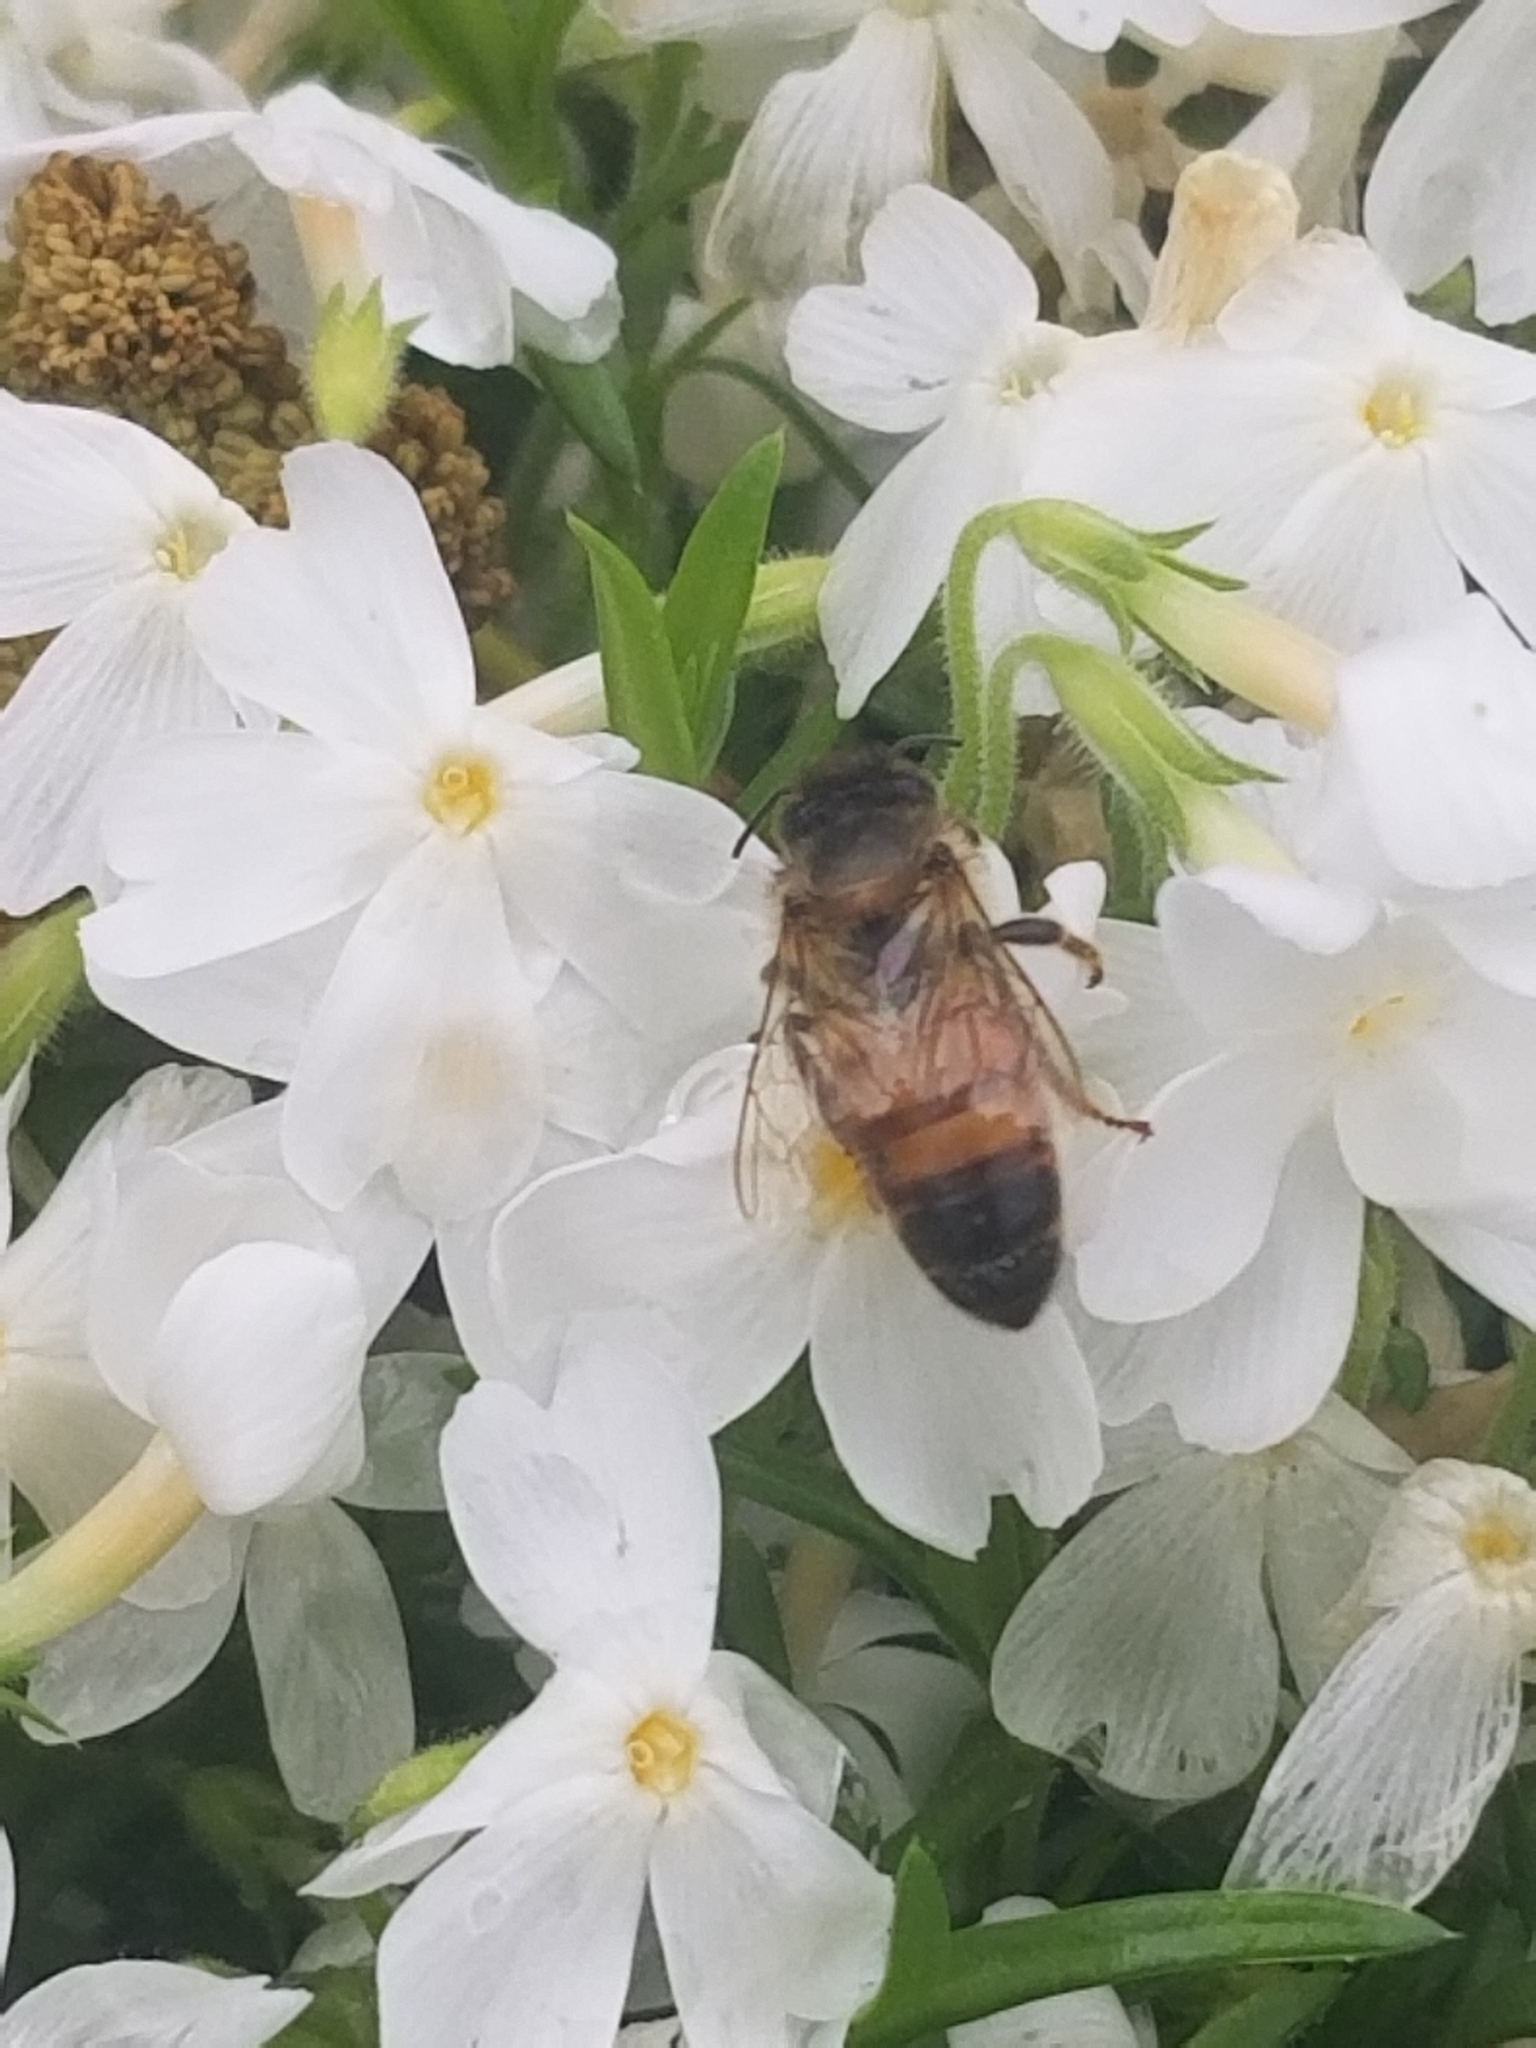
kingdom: Animalia
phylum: Arthropoda
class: Insecta
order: Hymenoptera
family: Apidae
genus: Apis
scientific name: Apis mellifera
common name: Honey bee
